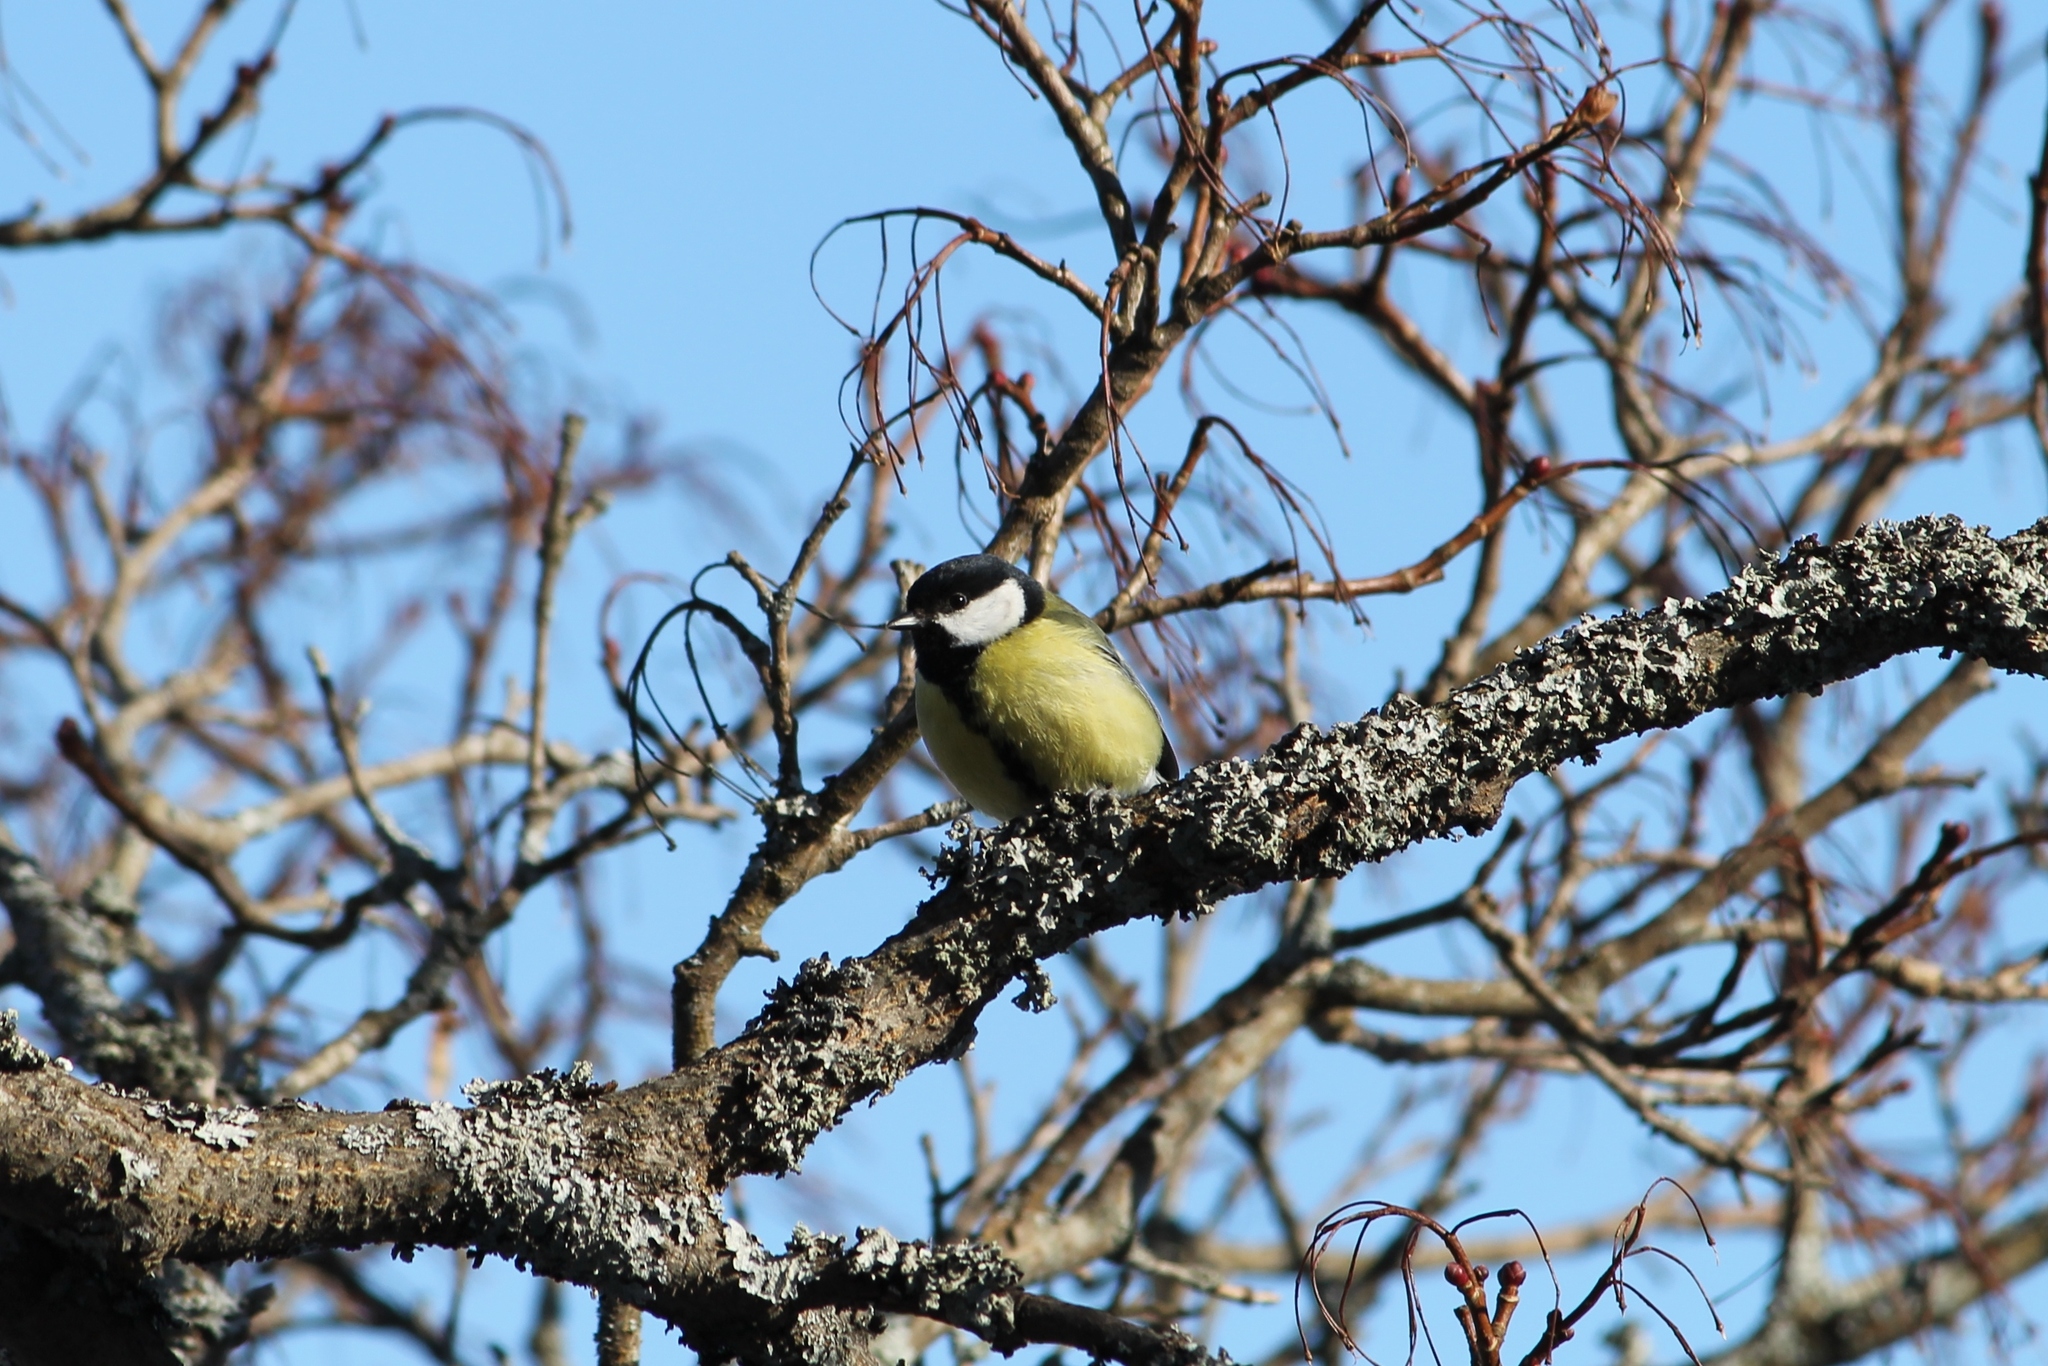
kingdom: Animalia
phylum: Chordata
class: Aves
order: Passeriformes
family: Paridae
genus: Parus
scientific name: Parus major
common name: Great tit
